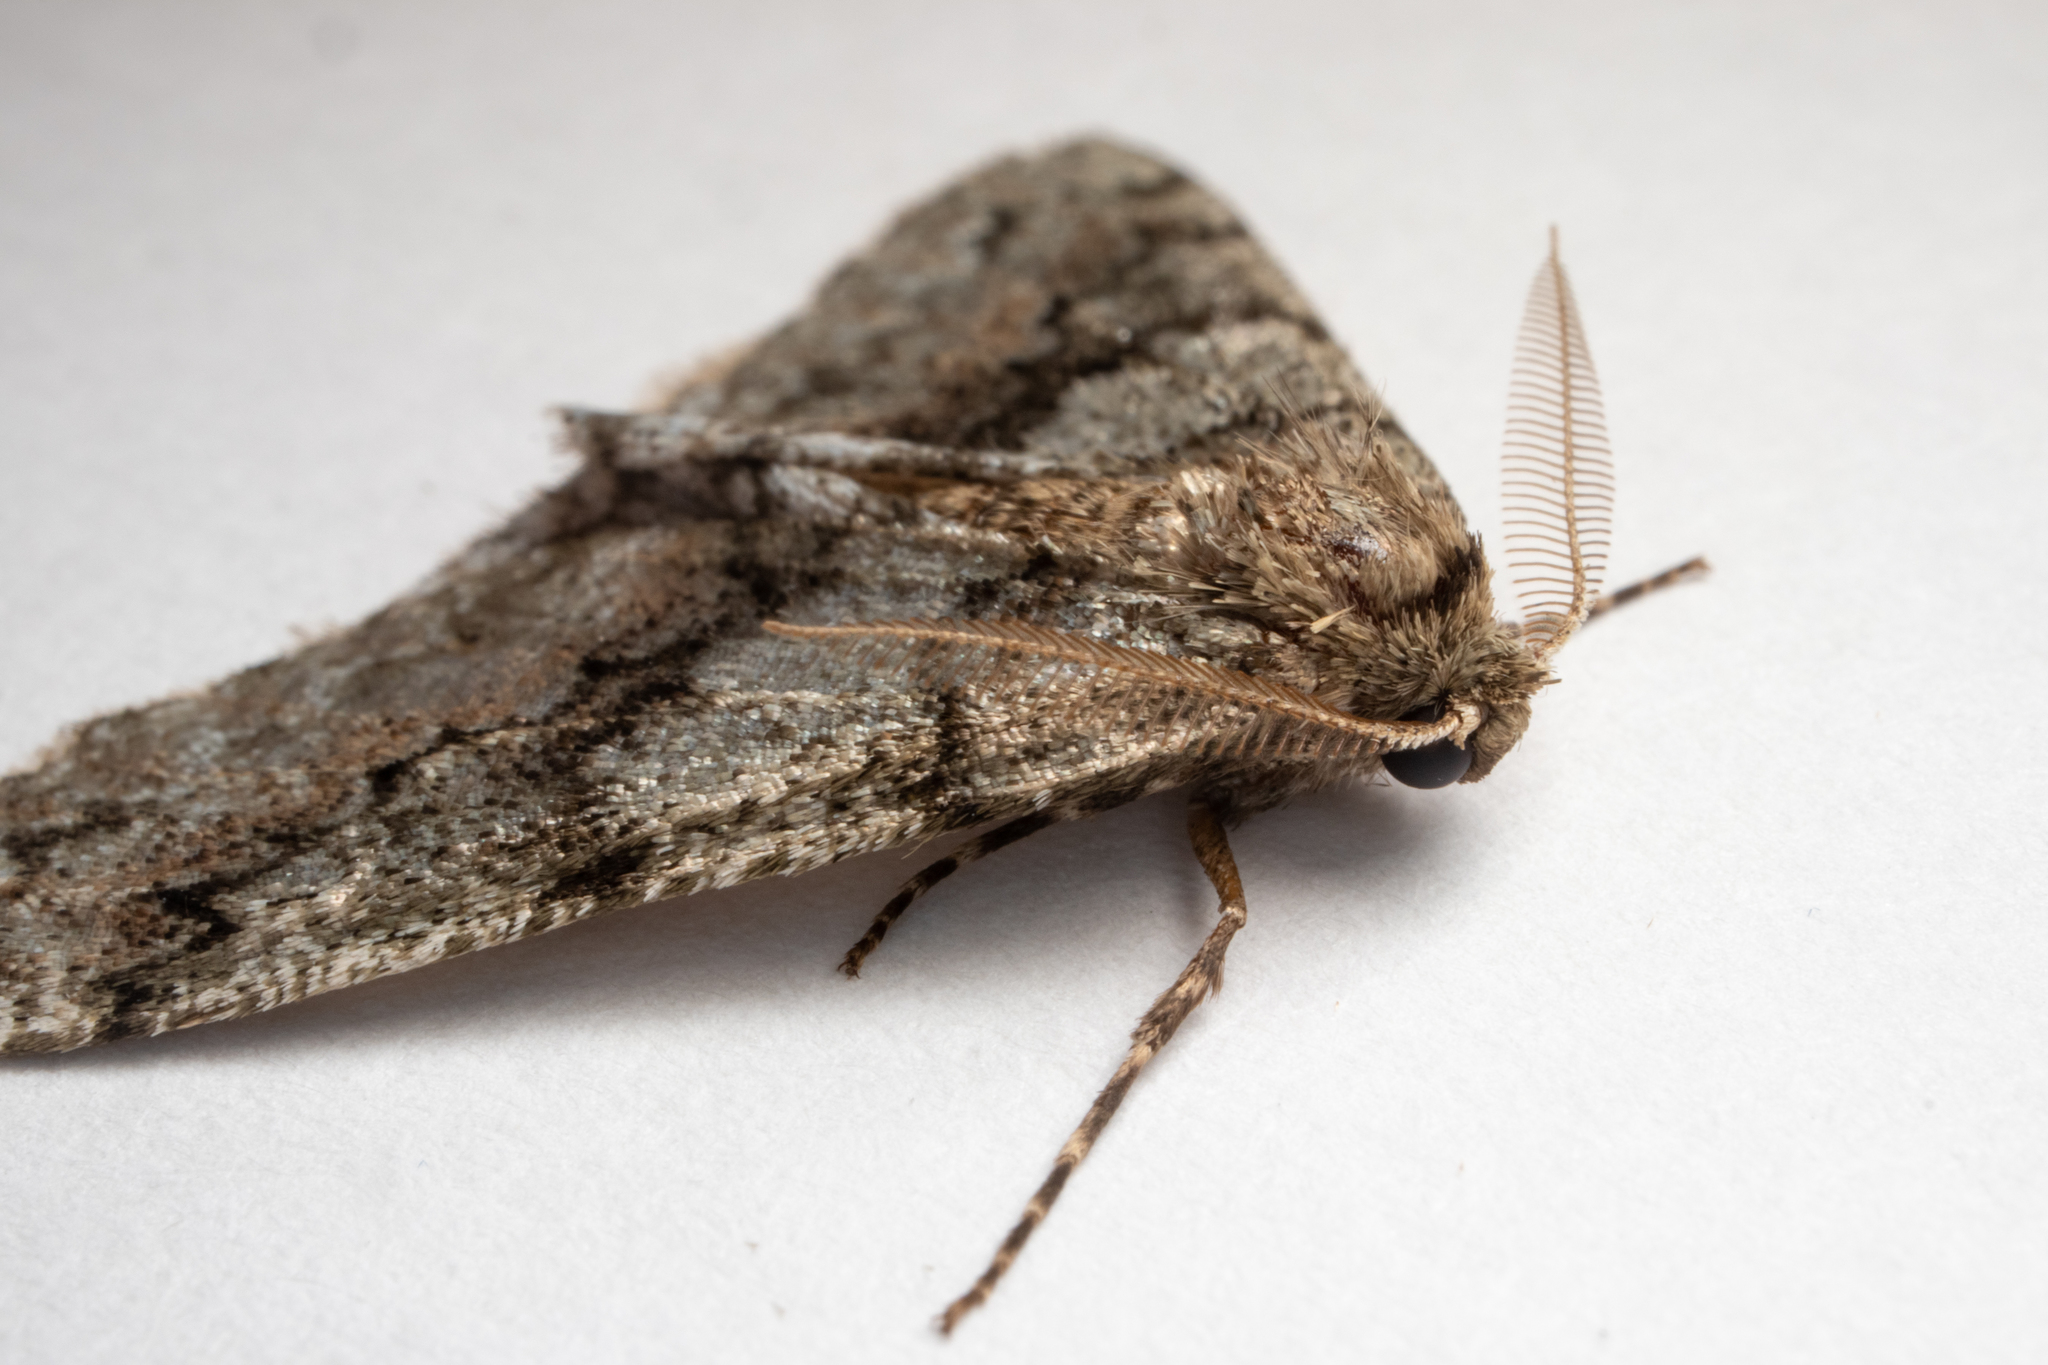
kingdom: Animalia
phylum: Arthropoda
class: Insecta
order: Lepidoptera
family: Geometridae
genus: Phigalia
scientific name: Phigalia denticulata
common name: Toothed phigalia
